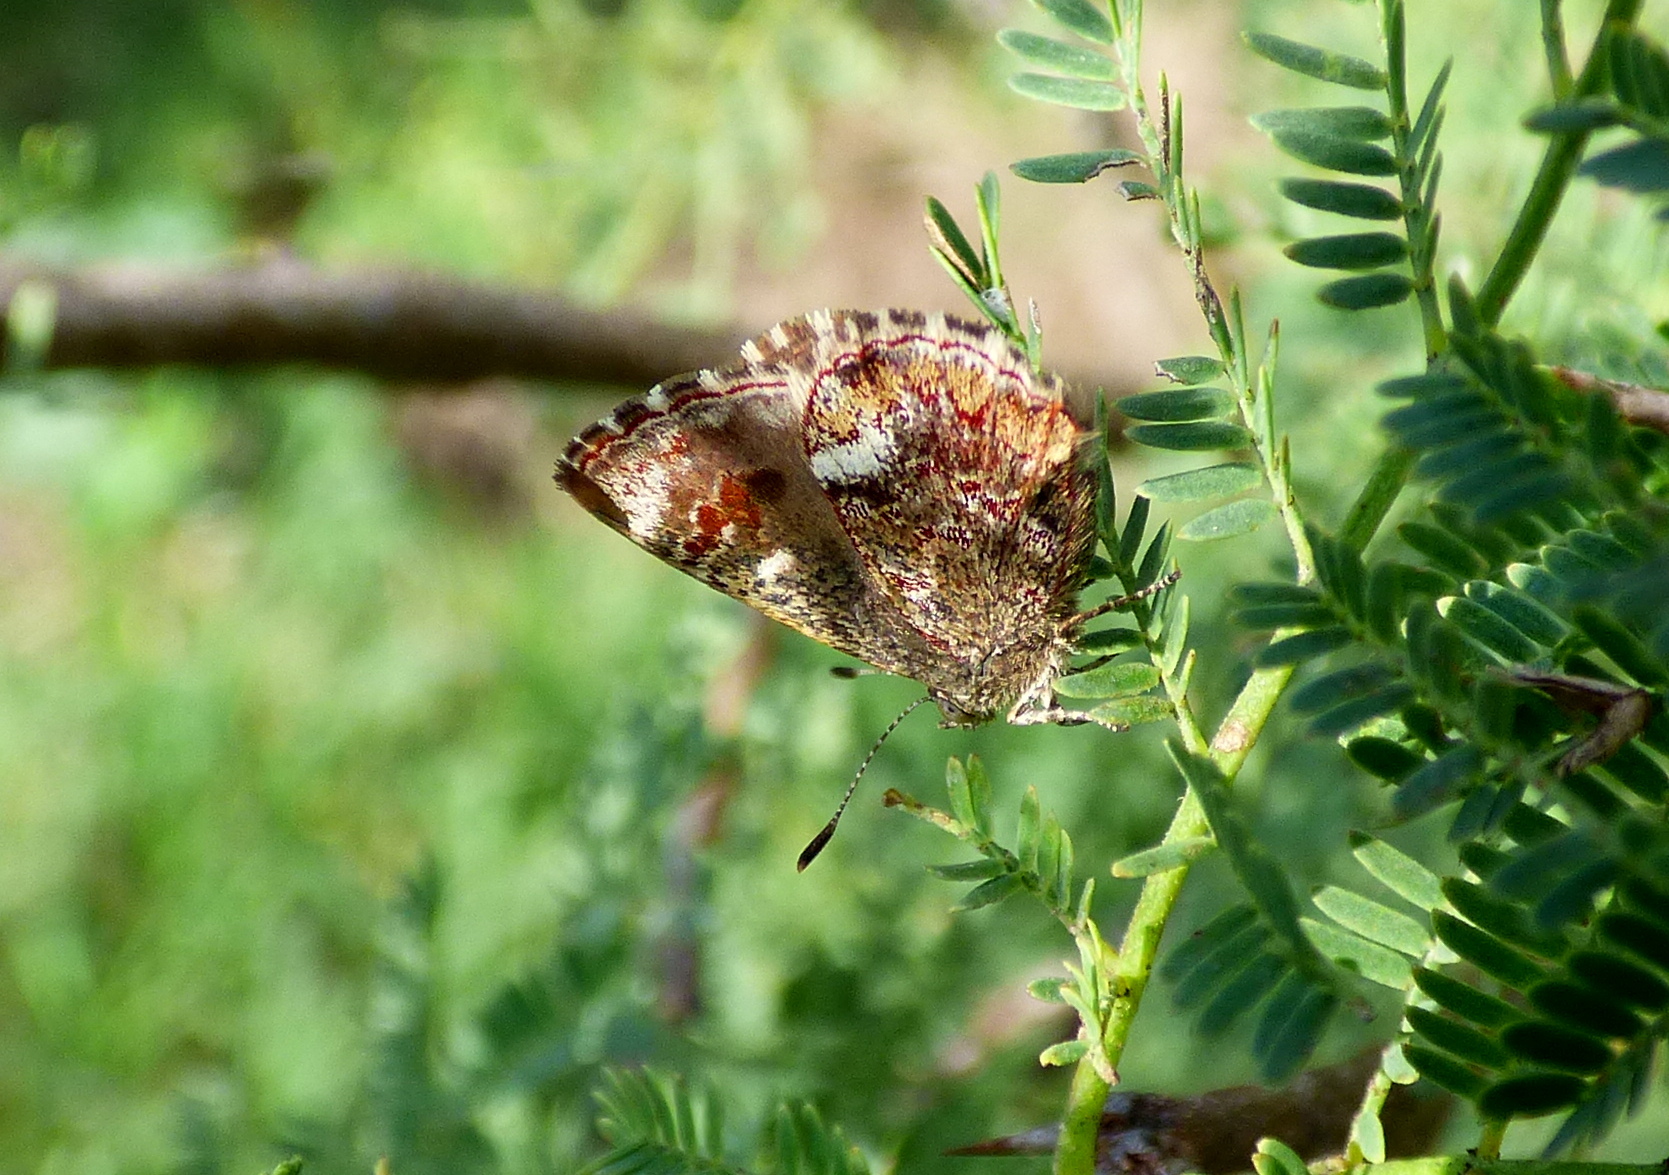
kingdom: Animalia
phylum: Arthropoda
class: Insecta
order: Lepidoptera
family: Lycaenidae
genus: Ministrymon
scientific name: Ministrymon
